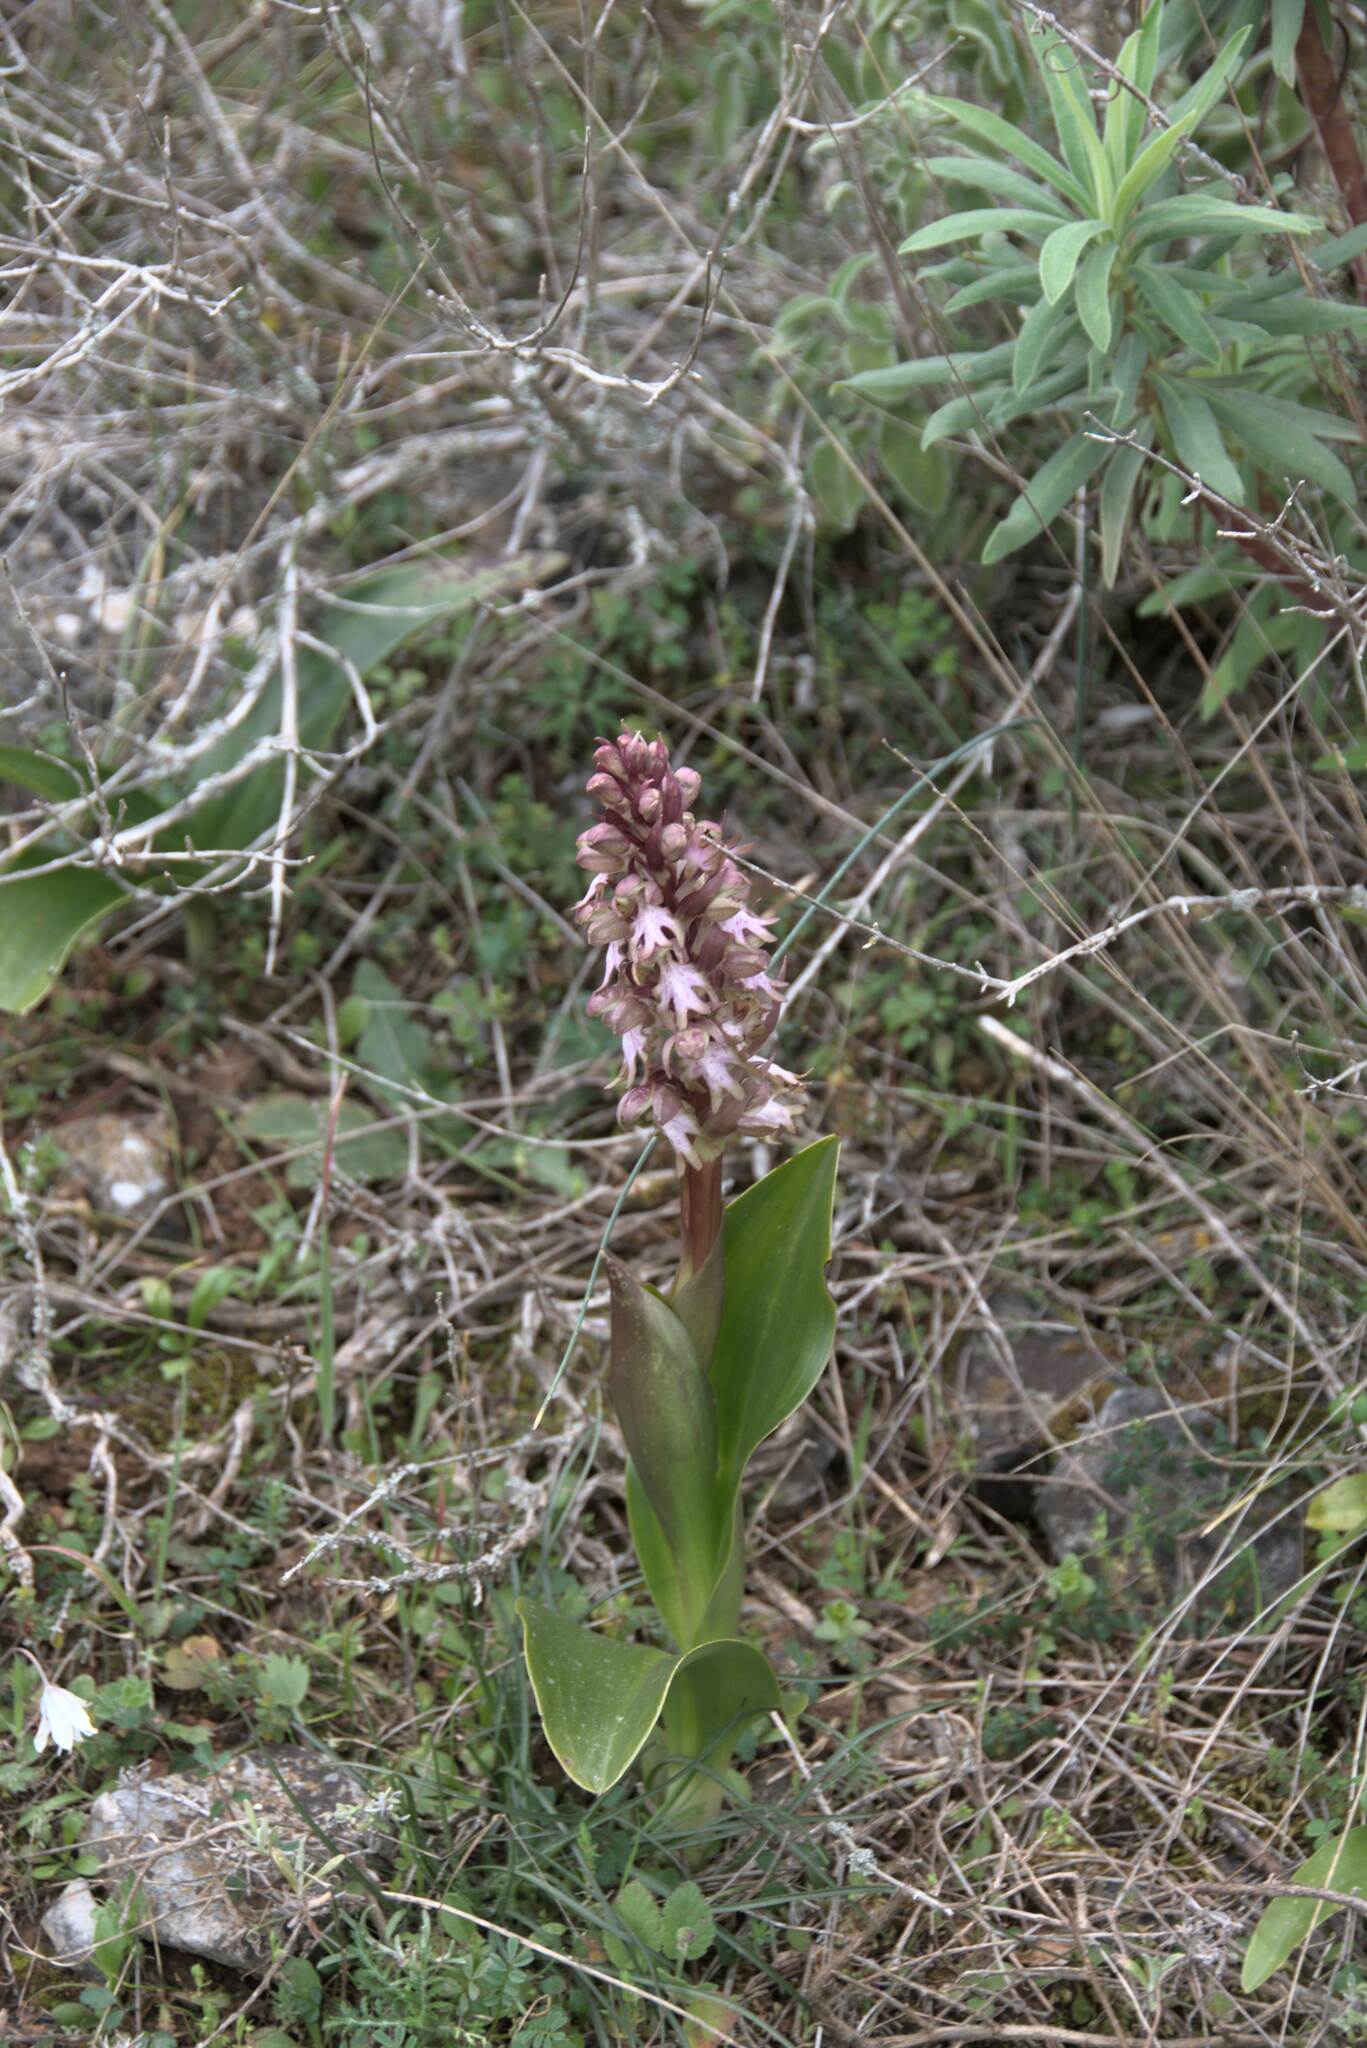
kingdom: Plantae
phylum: Tracheophyta
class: Liliopsida
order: Asparagales
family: Orchidaceae
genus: Himantoglossum
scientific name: Himantoglossum robertianum
